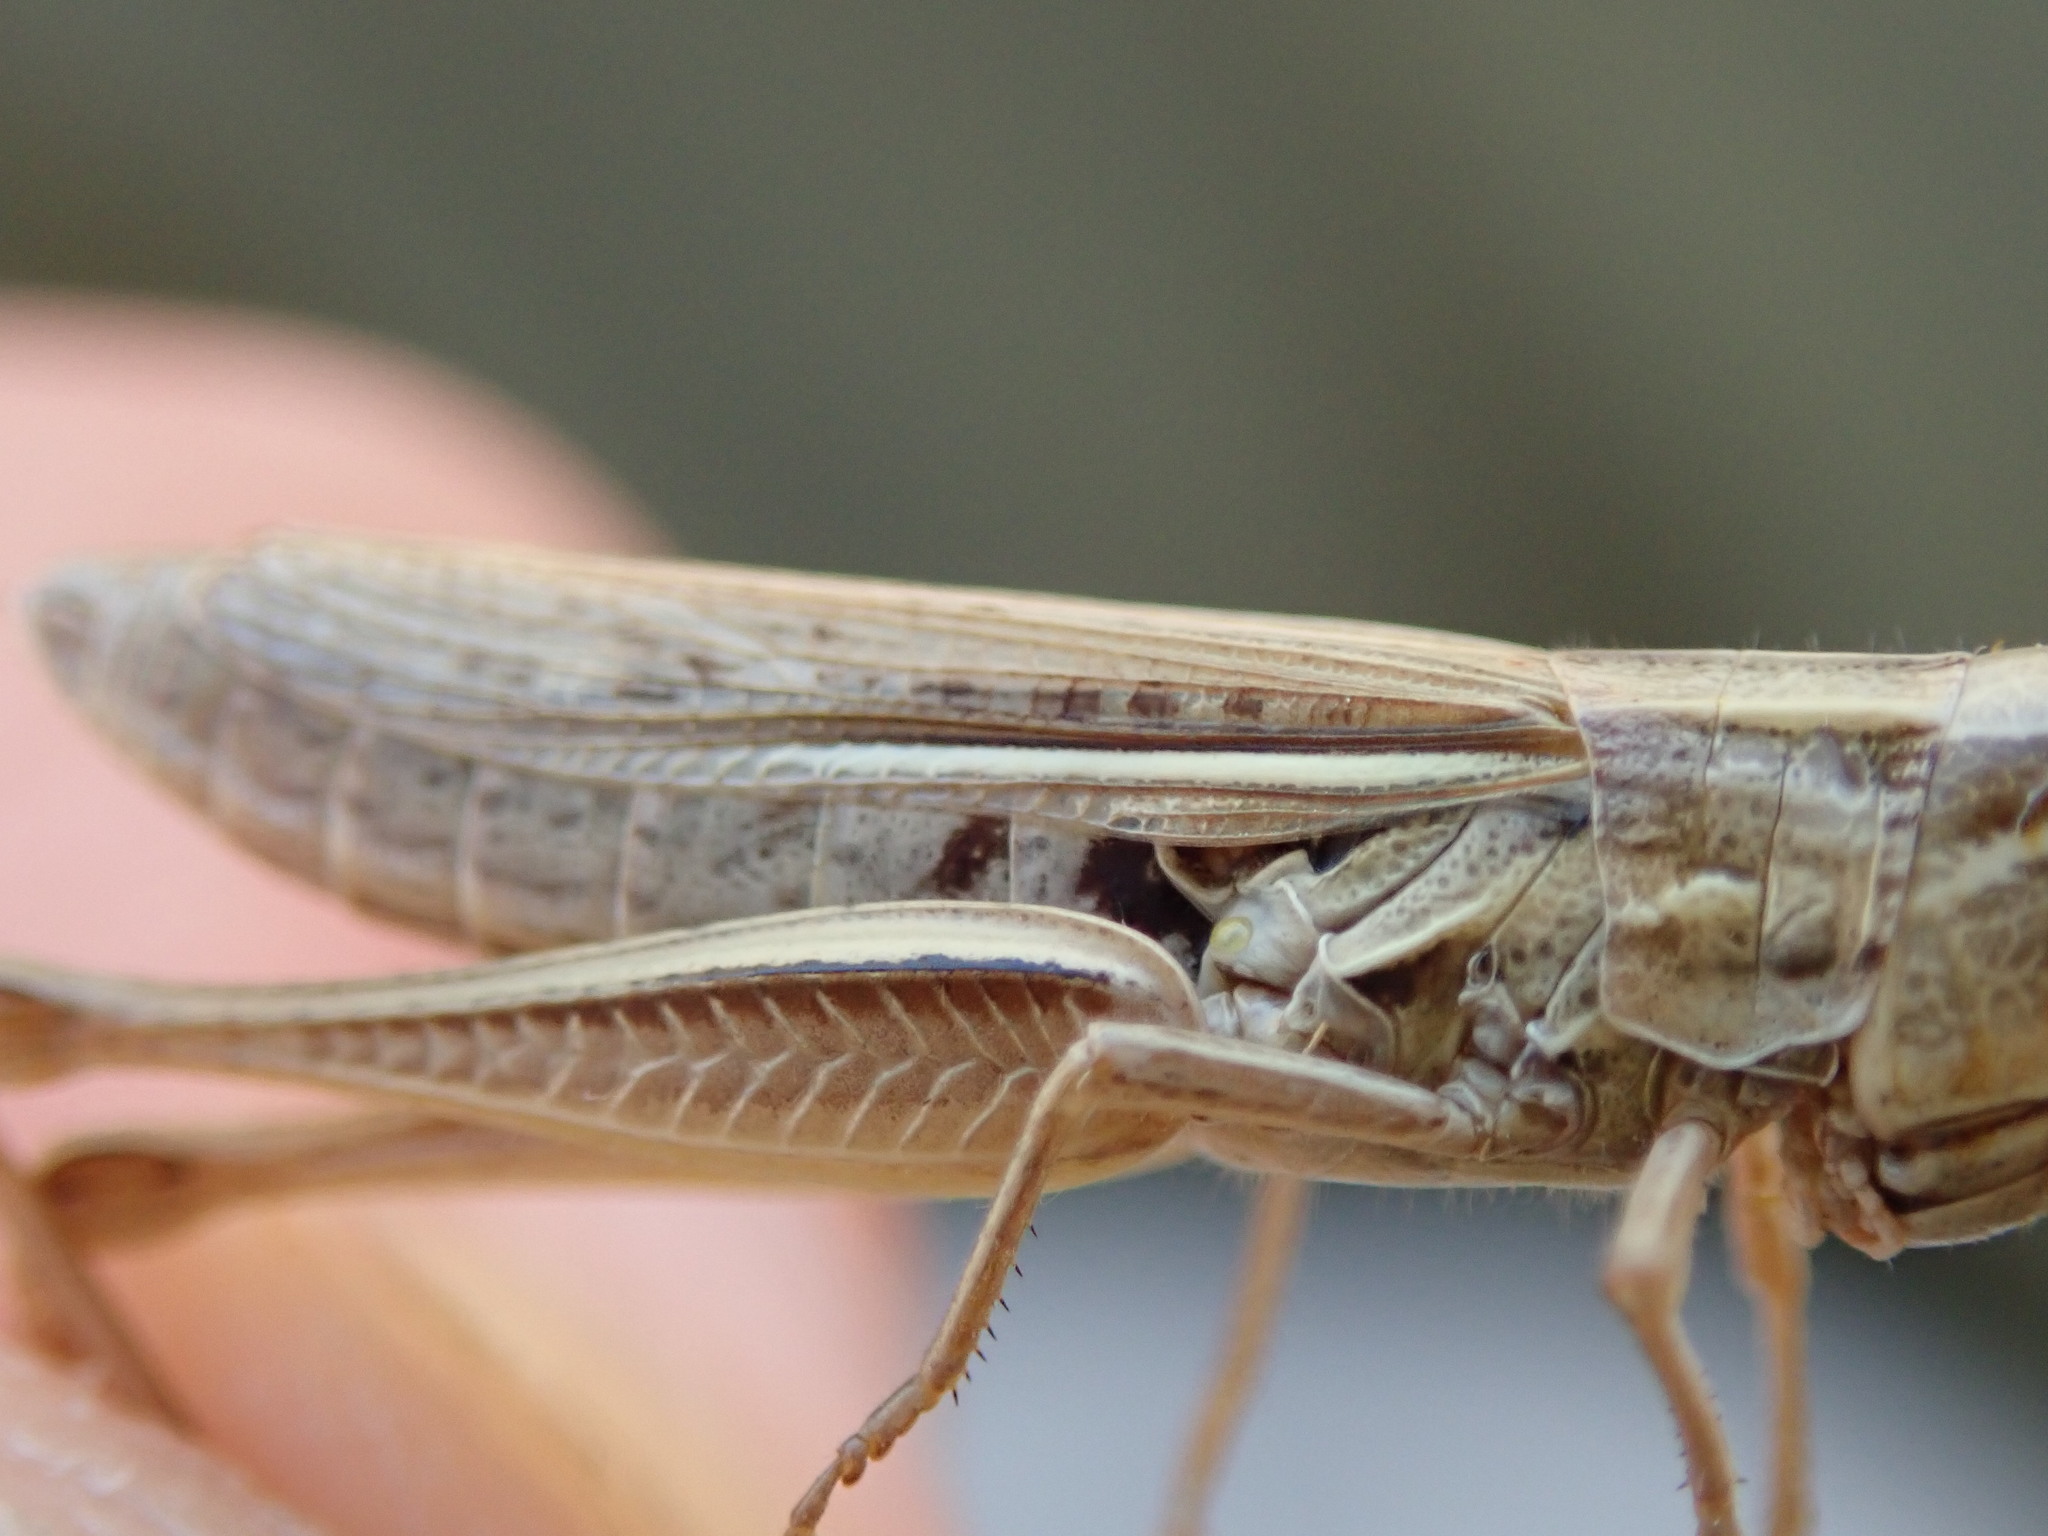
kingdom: Animalia
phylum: Arthropoda
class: Insecta
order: Orthoptera
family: Acrididae
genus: Euchorthippus
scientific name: Euchorthippus elegantulus
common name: Elegant straw grasshopper
